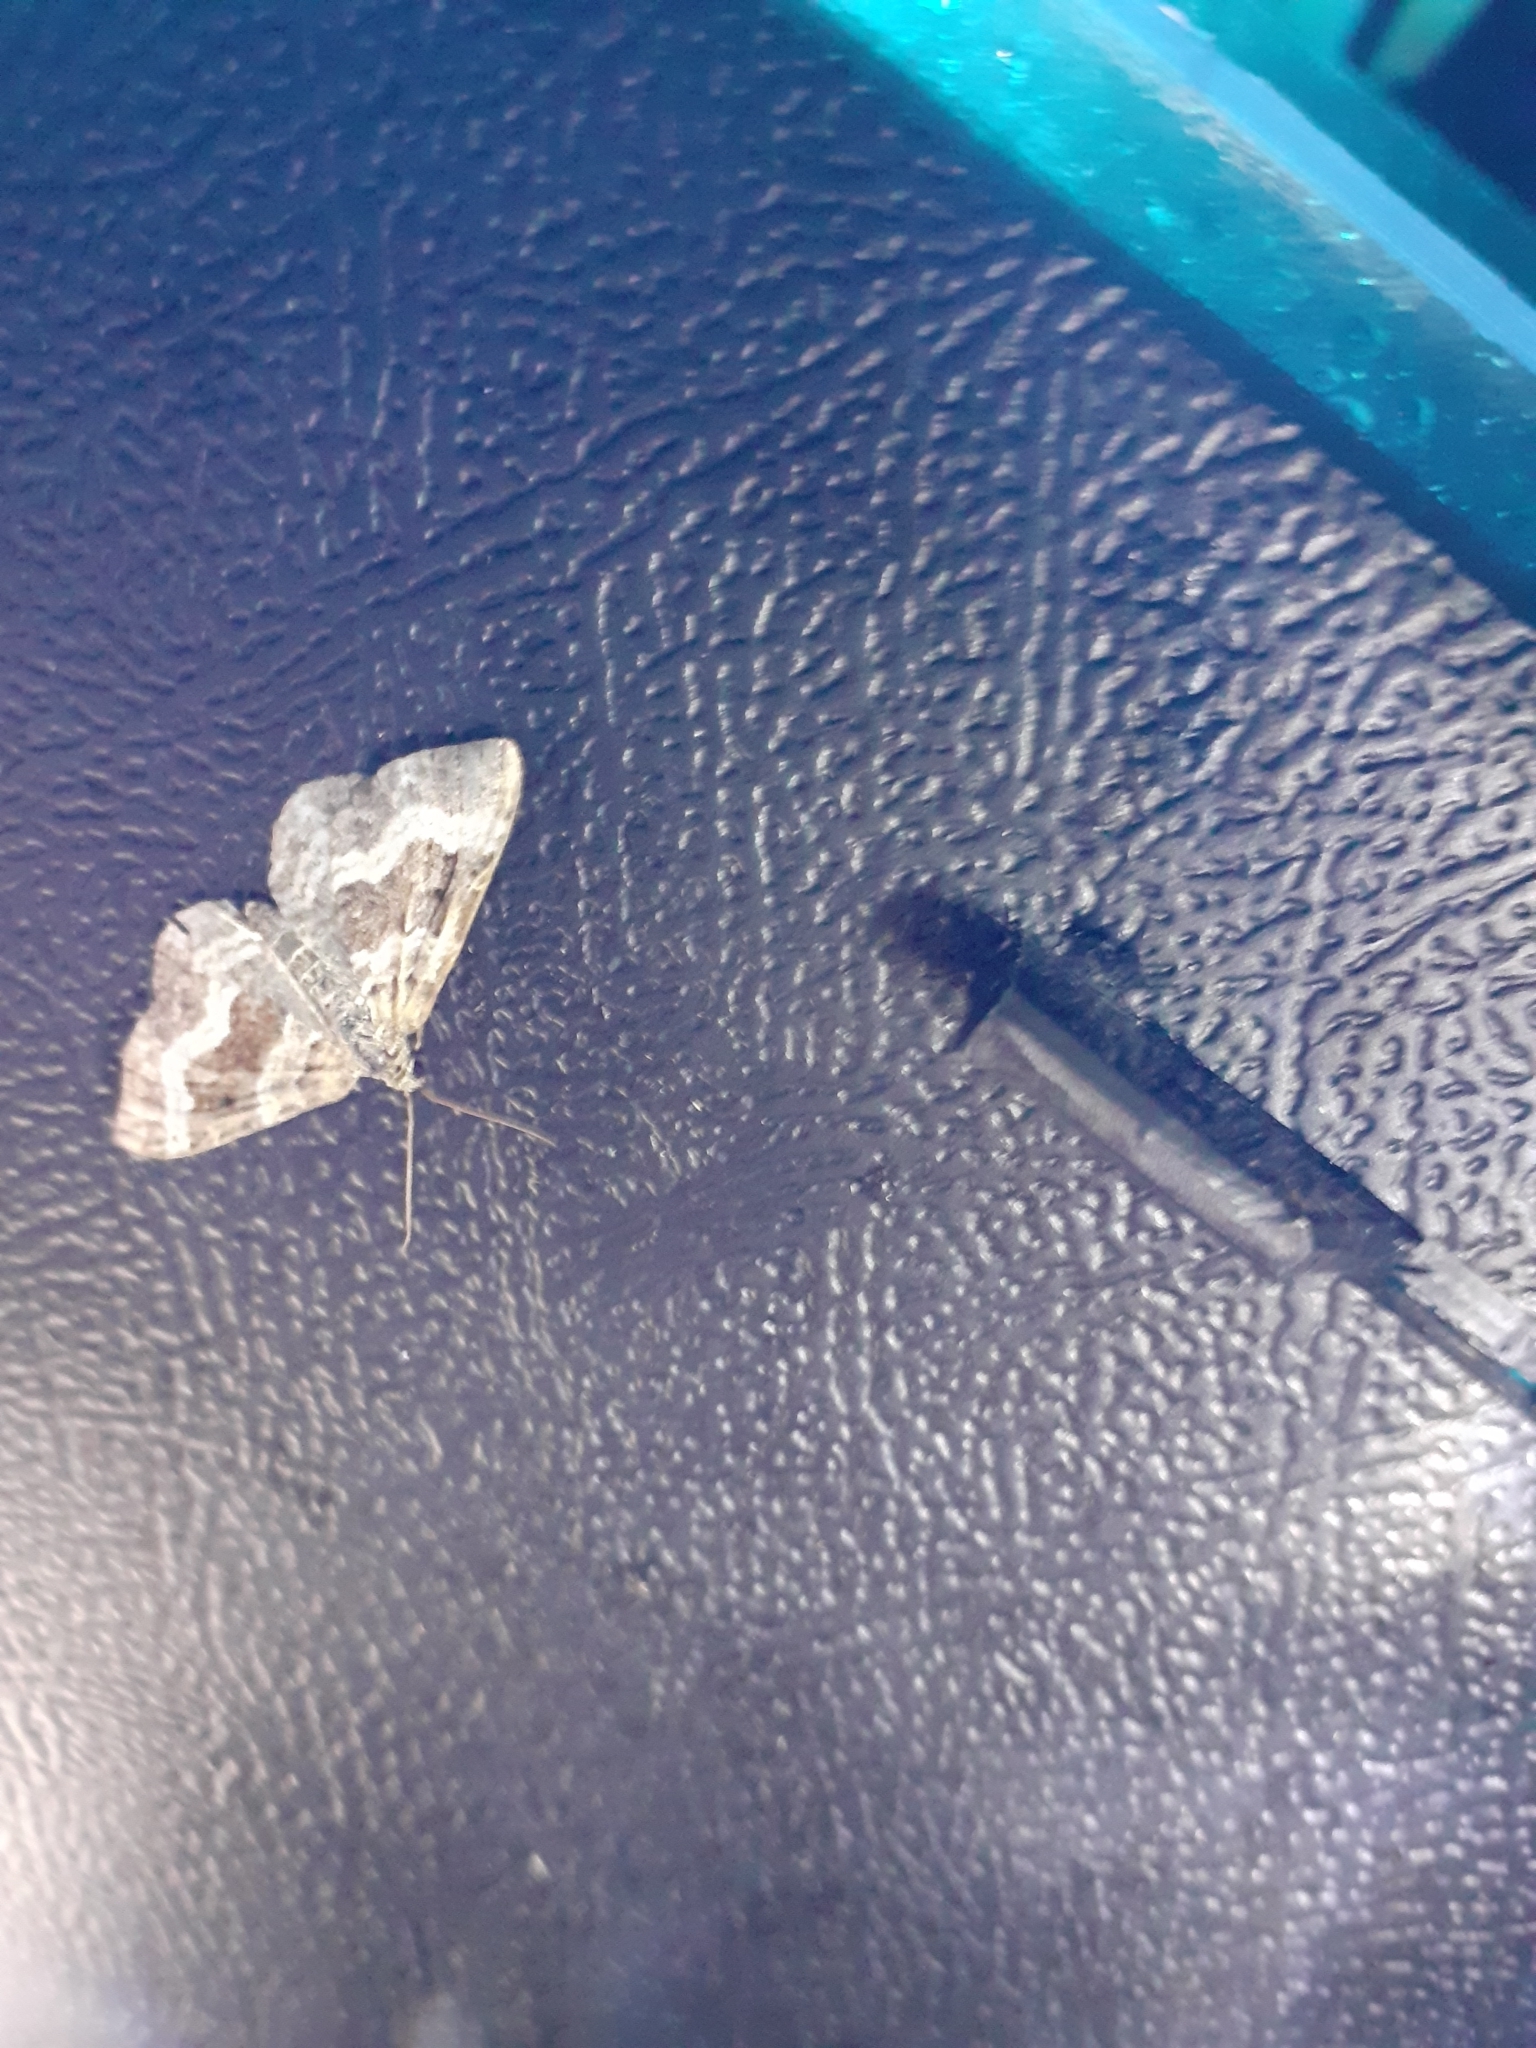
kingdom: Animalia
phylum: Arthropoda
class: Insecta
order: Lepidoptera
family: Geometridae
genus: Epirrhoe
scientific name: Epirrhoe alternata
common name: Common carpet
